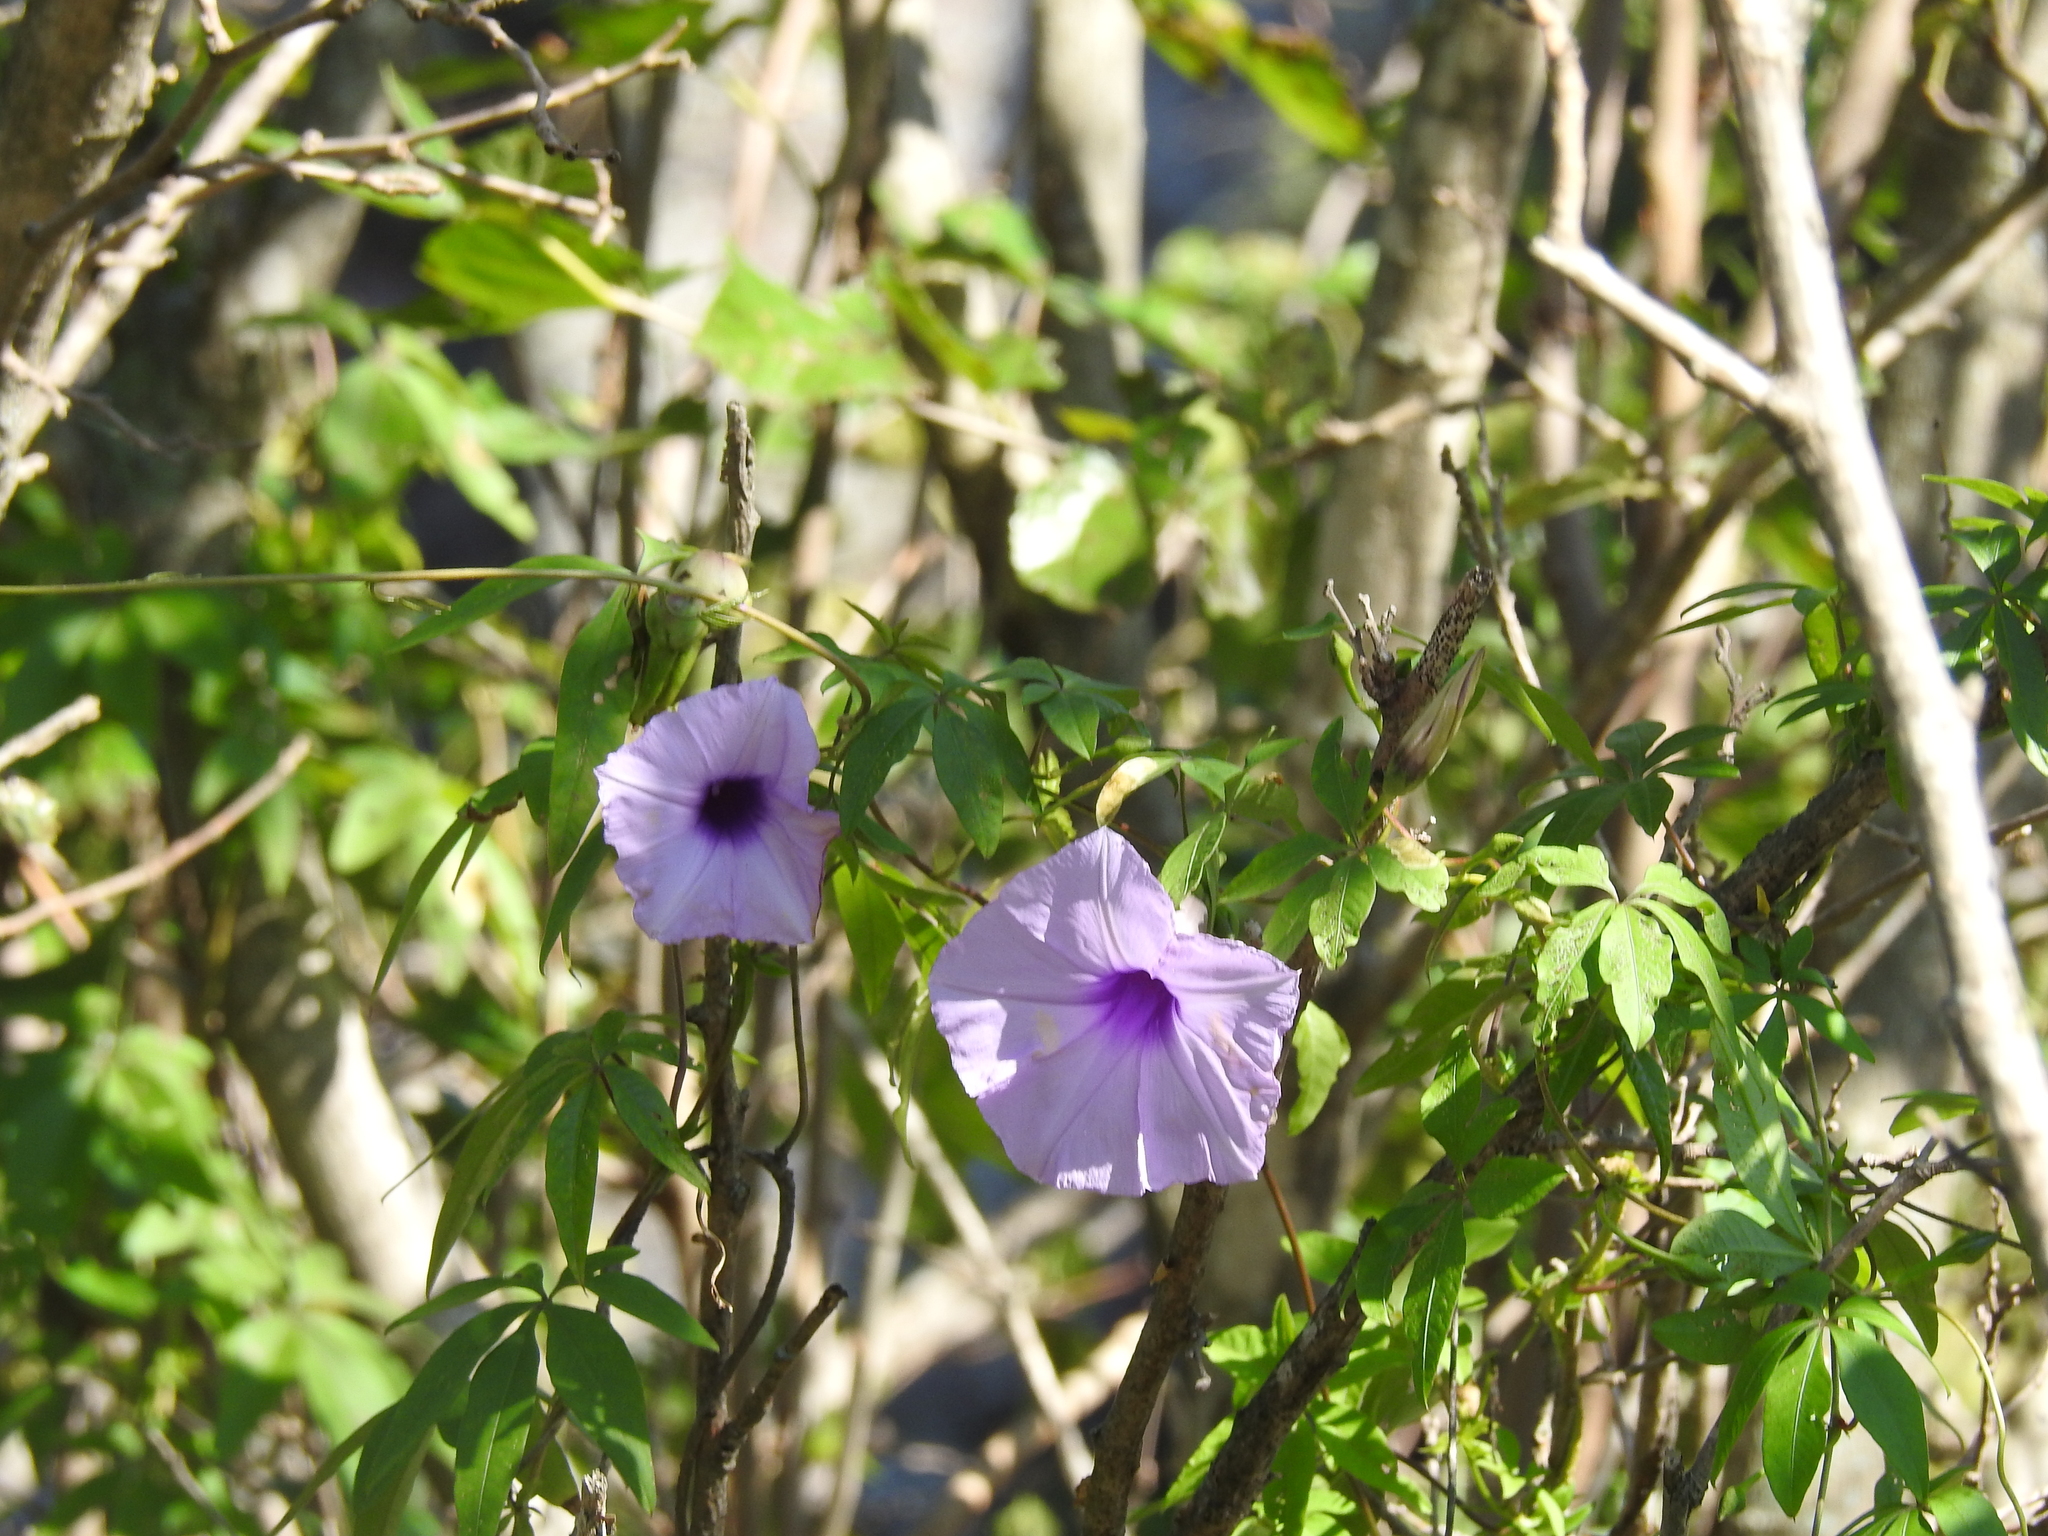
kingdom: Plantae
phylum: Tracheophyta
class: Magnoliopsida
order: Solanales
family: Convolvulaceae
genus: Ipomoea
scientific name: Ipomoea cairica
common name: Mile a minute vine
